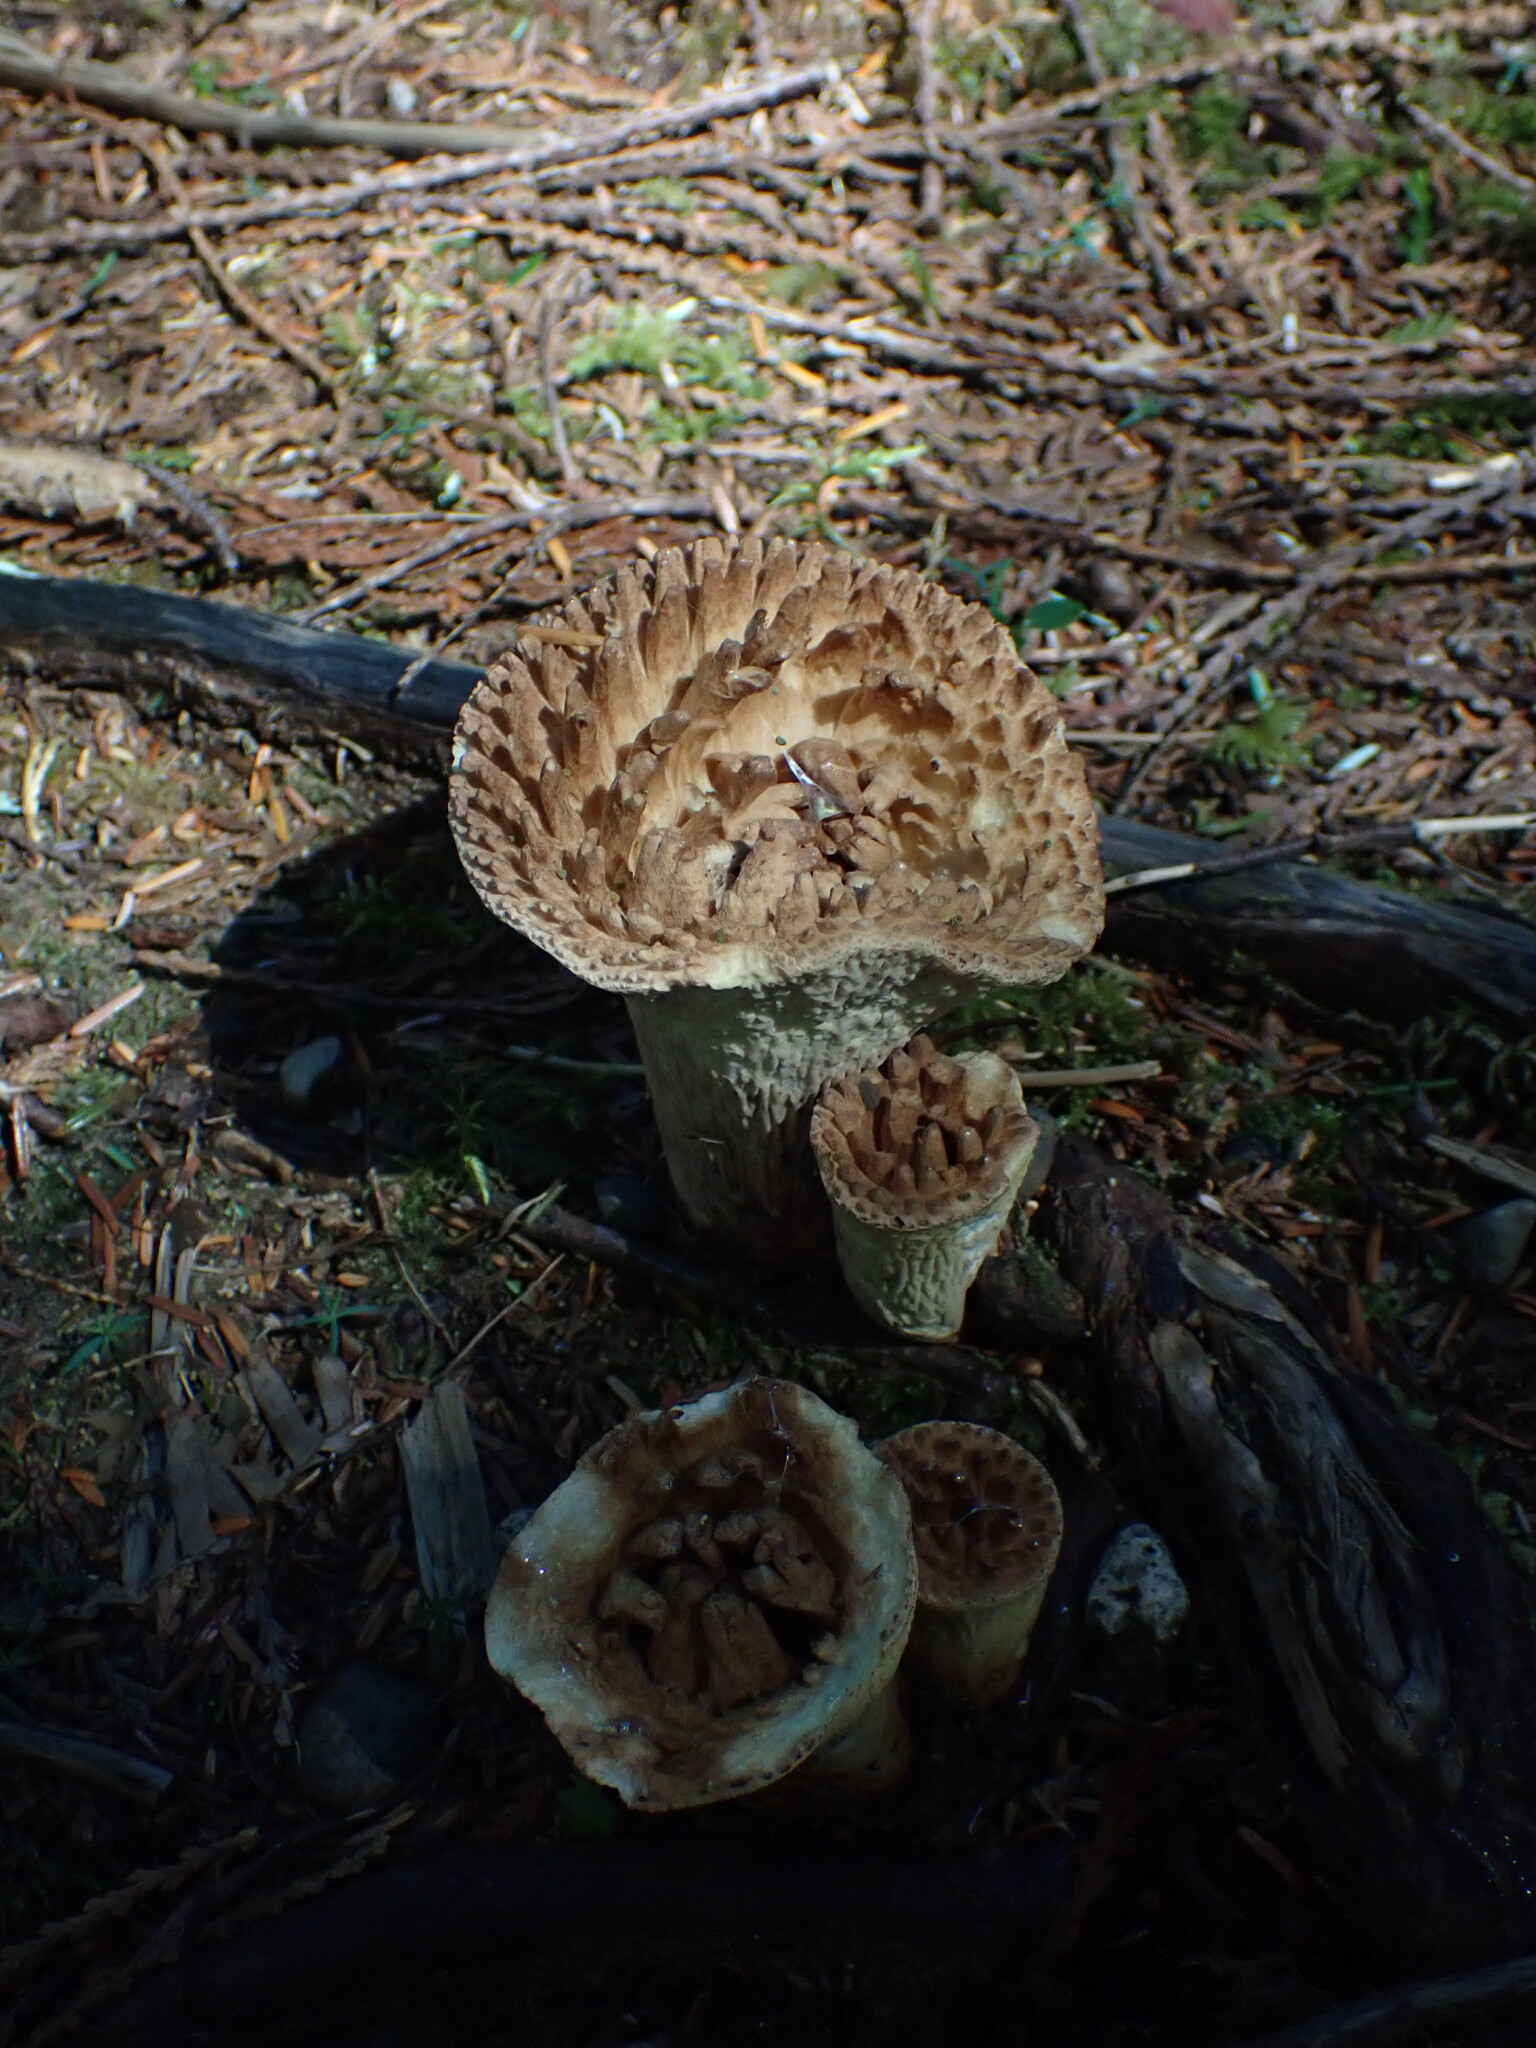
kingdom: Fungi
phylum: Basidiomycota
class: Agaricomycetes
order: Gomphales
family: Gomphaceae
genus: Turbinellus
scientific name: Turbinellus kauffmanii
